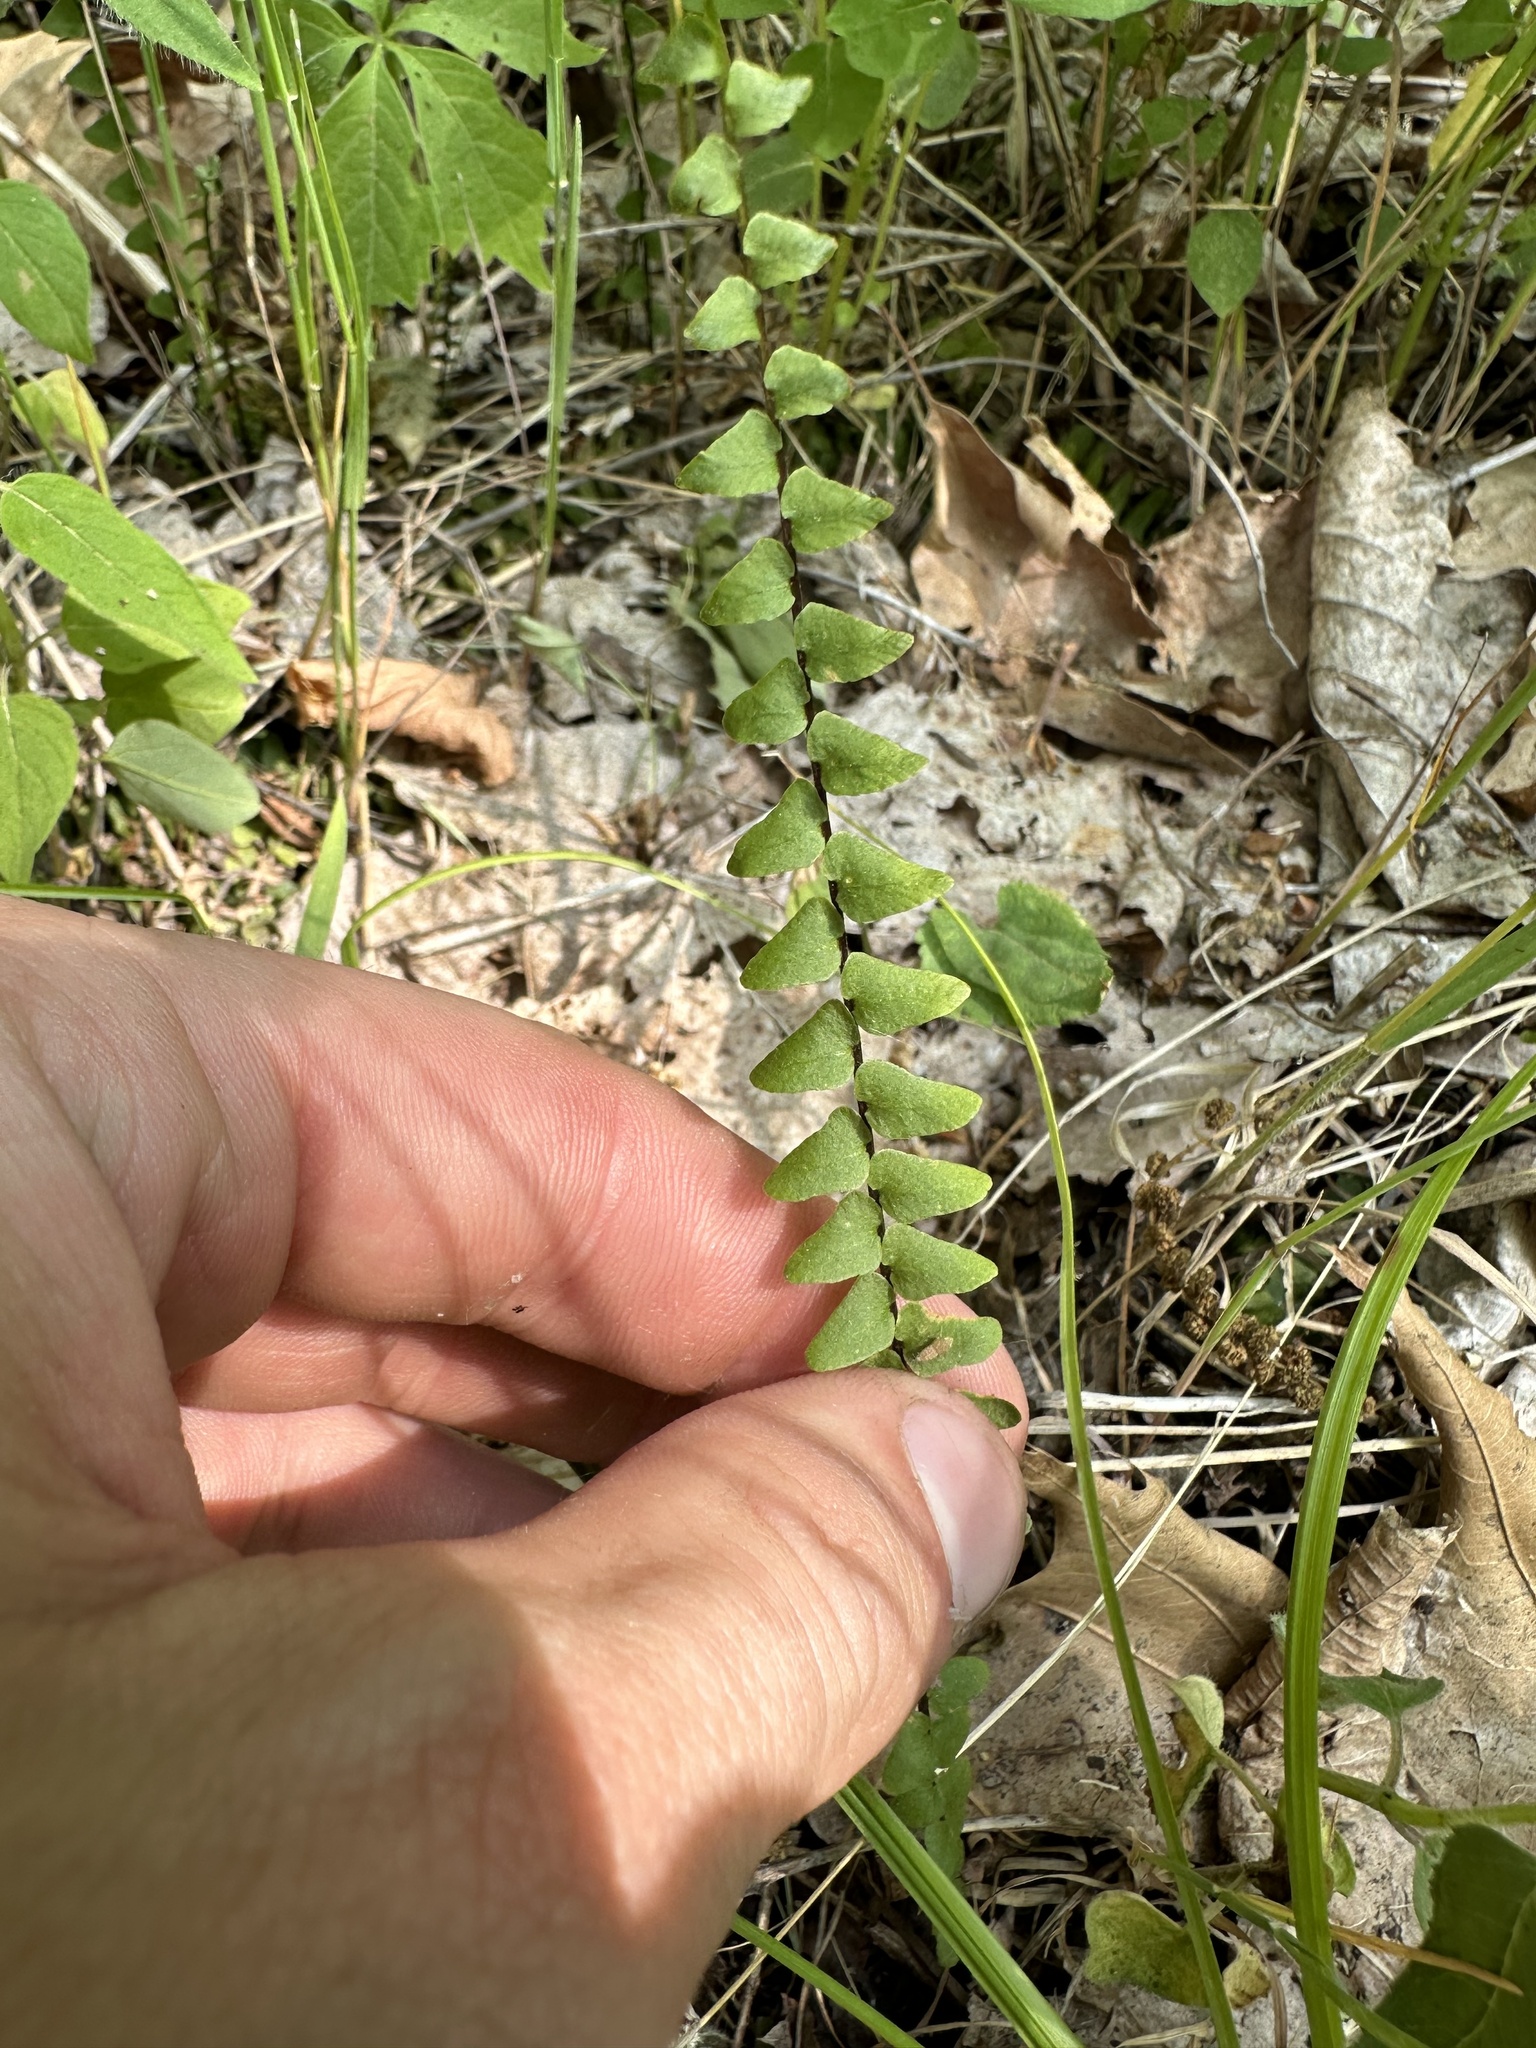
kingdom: Plantae
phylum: Tracheophyta
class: Polypodiopsida
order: Polypodiales
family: Aspleniaceae
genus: Asplenium
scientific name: Asplenium platyneuron
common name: Ebony spleenwort
